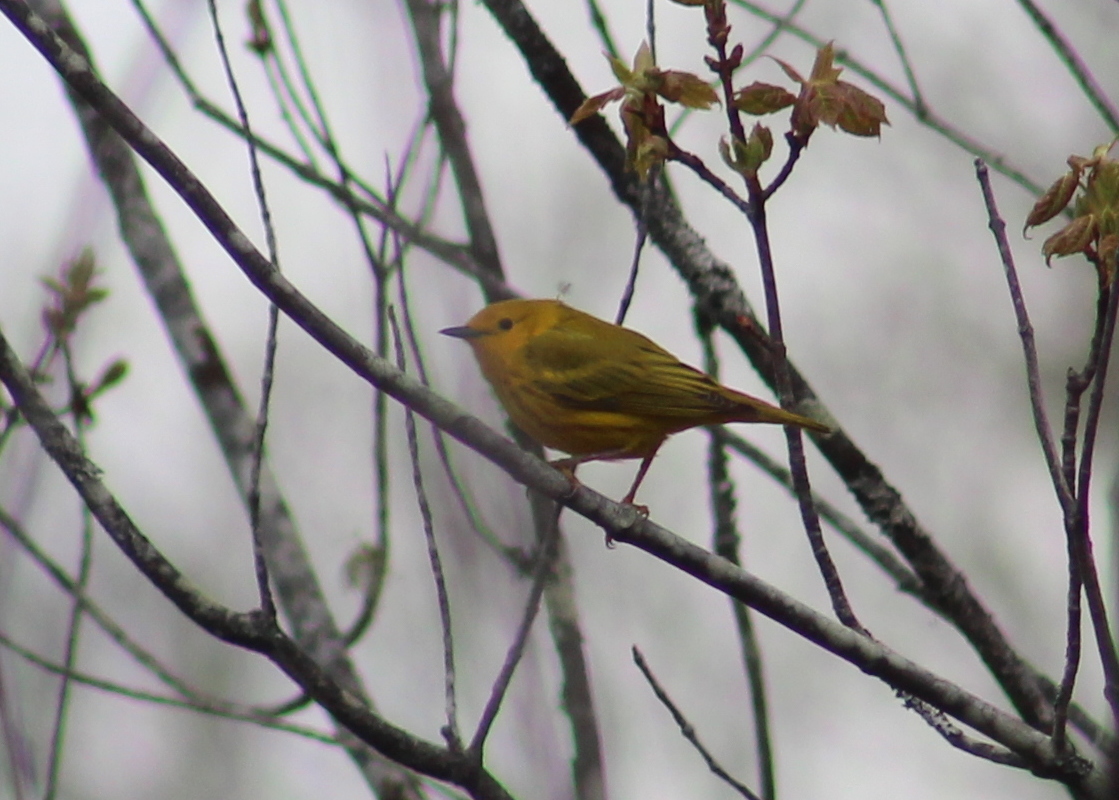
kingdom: Animalia
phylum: Chordata
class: Aves
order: Passeriformes
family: Parulidae
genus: Setophaga
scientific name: Setophaga petechia
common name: Yellow warbler
